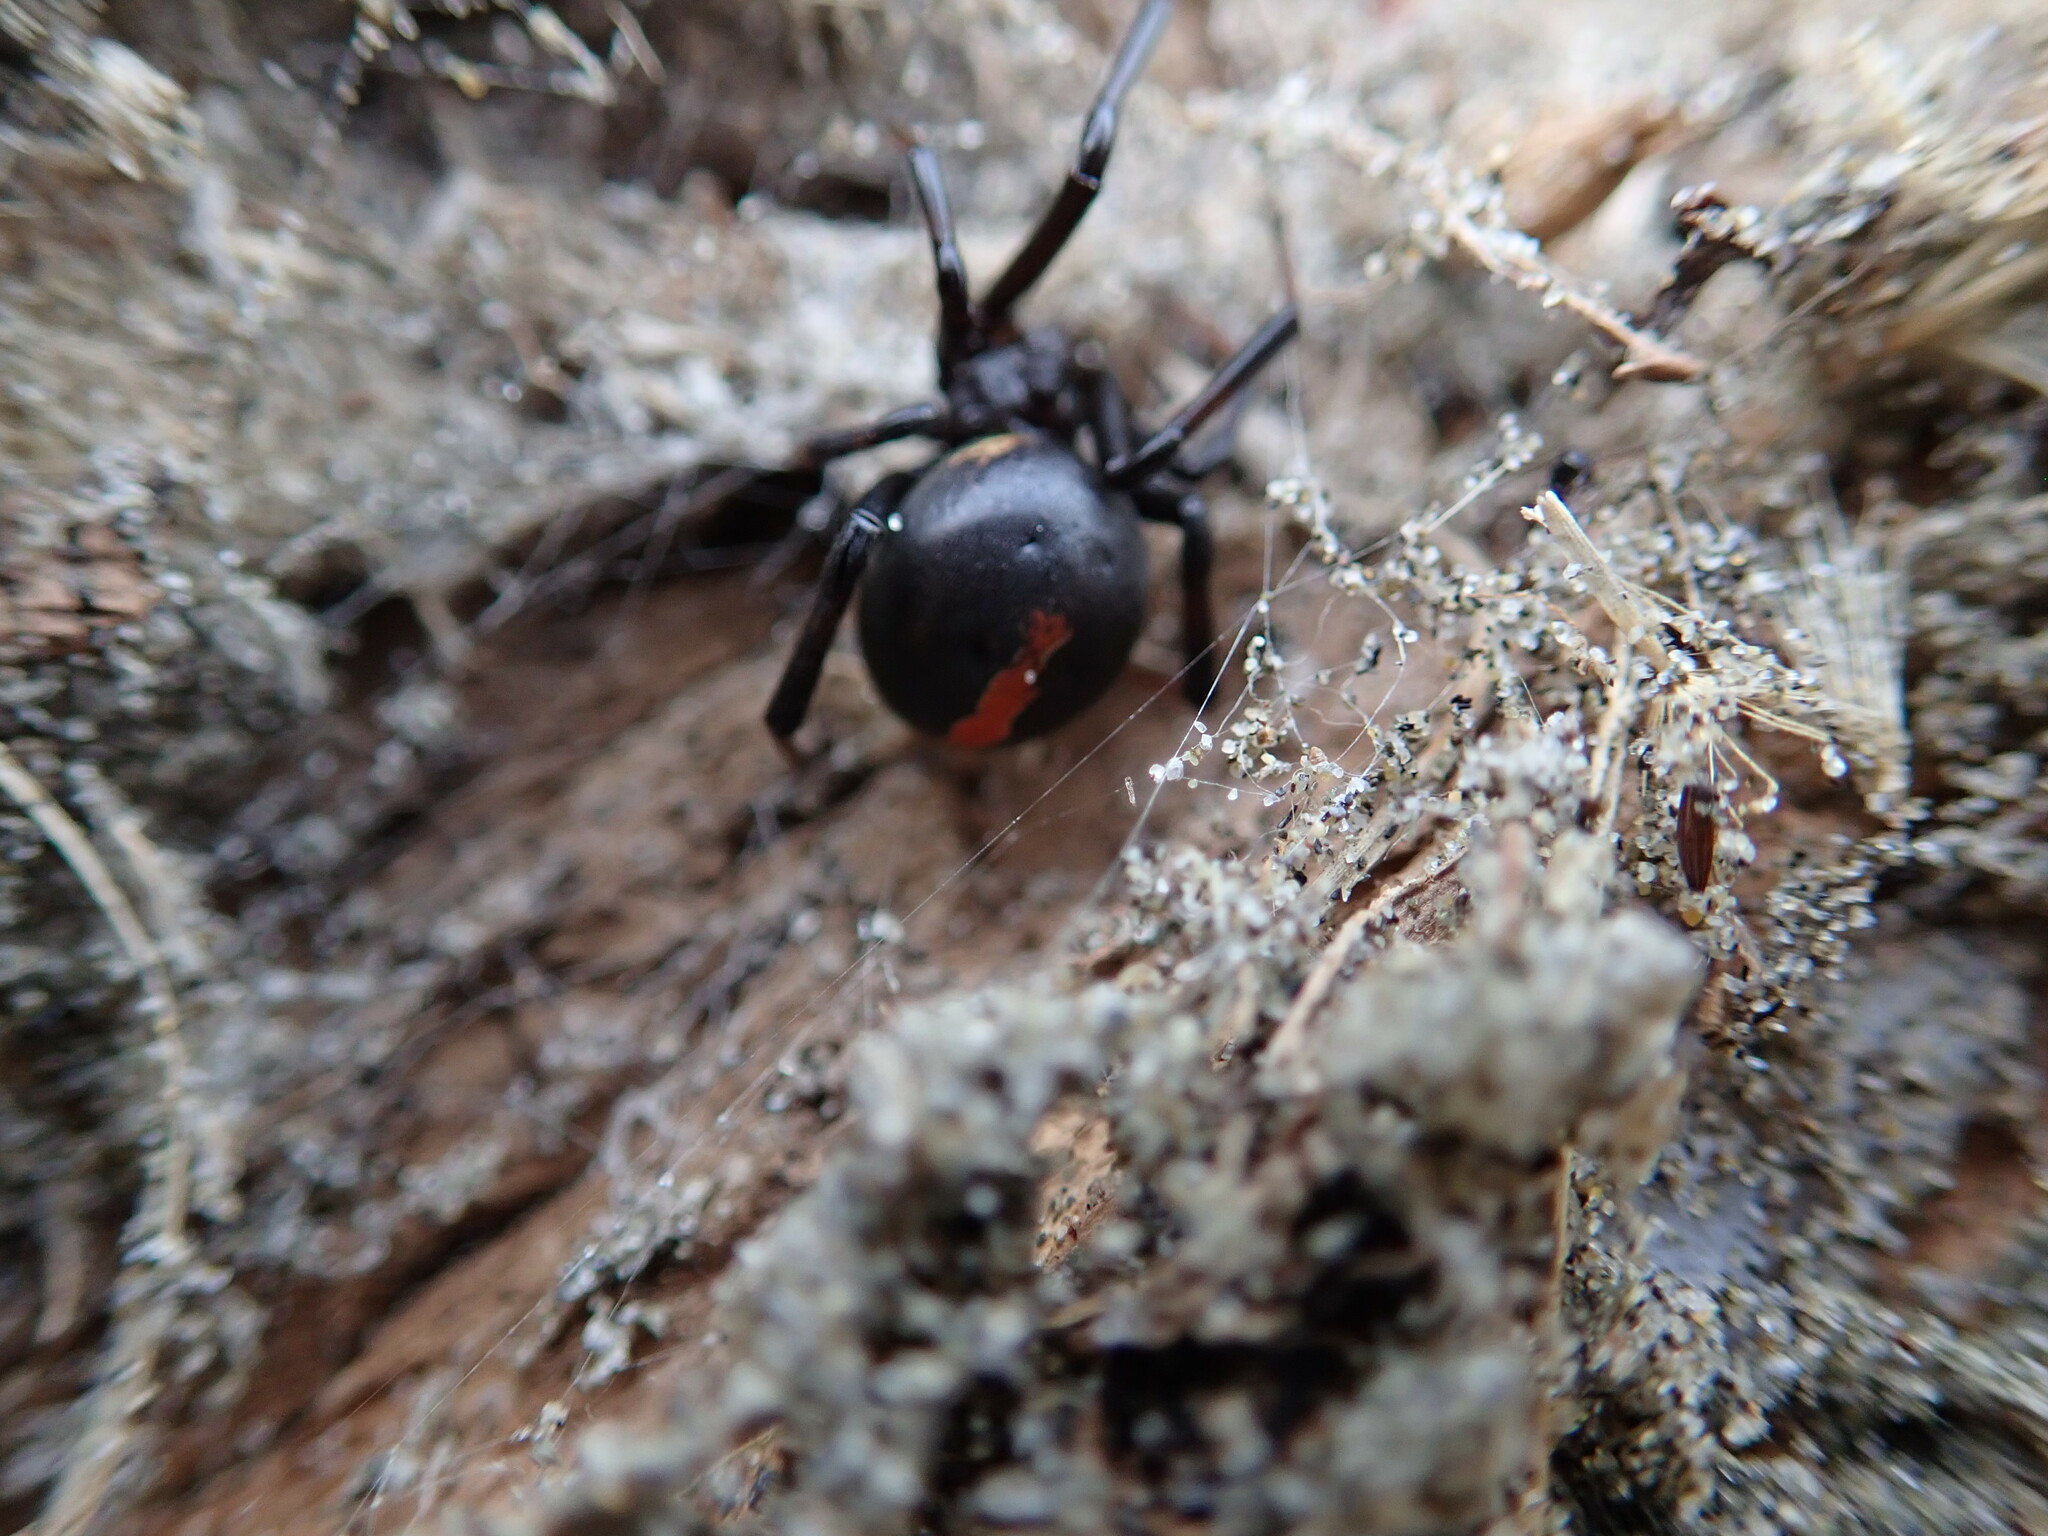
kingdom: Animalia
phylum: Arthropoda
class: Arachnida
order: Araneae
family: Theridiidae
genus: Latrodectus
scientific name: Latrodectus katipo
